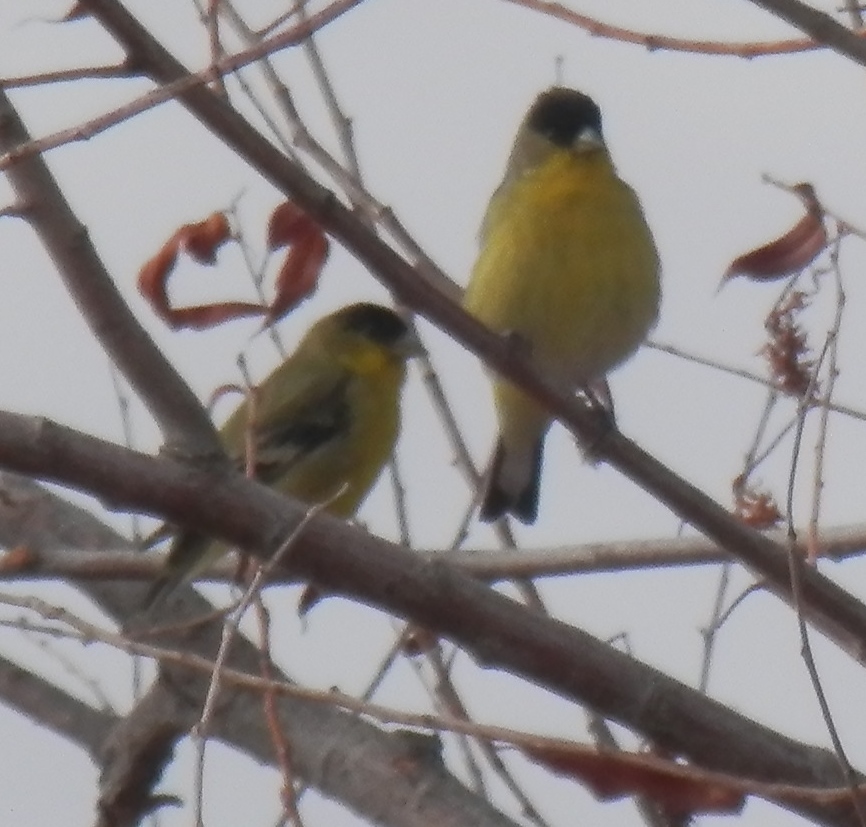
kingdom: Animalia
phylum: Chordata
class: Aves
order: Passeriformes
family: Fringillidae
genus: Spinus
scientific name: Spinus psaltria
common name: Lesser goldfinch
